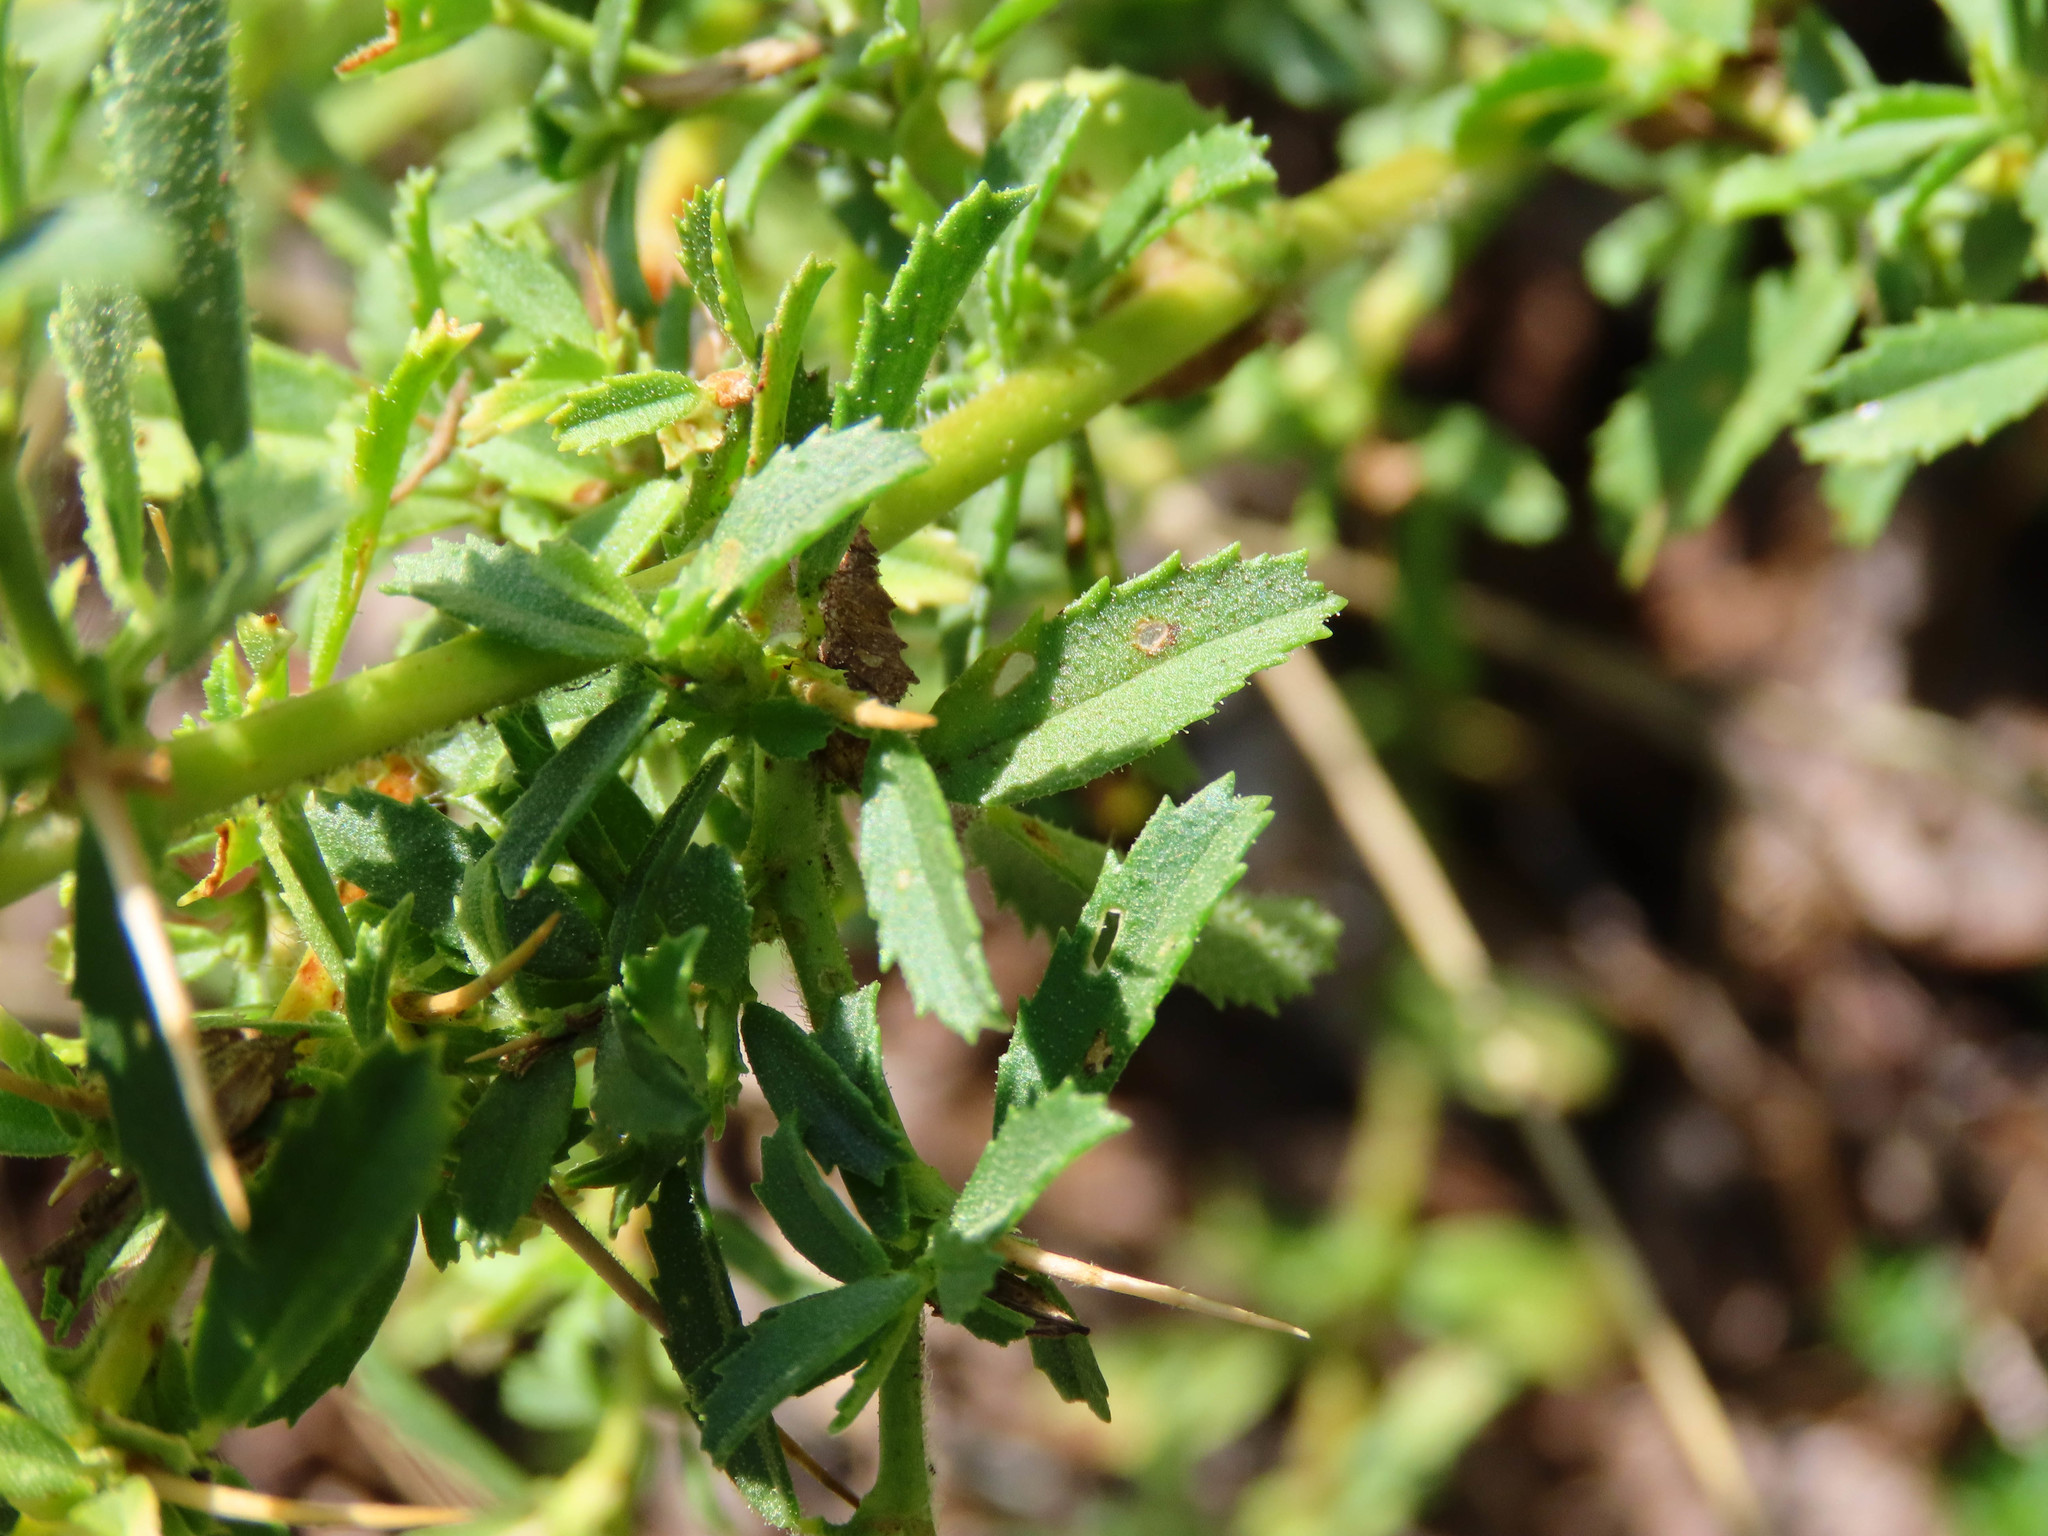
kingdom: Plantae
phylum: Tracheophyta
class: Magnoliopsida
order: Fabales
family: Fabaceae
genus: Ononis
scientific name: Ononis spinosa
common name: Spiny restharrow
